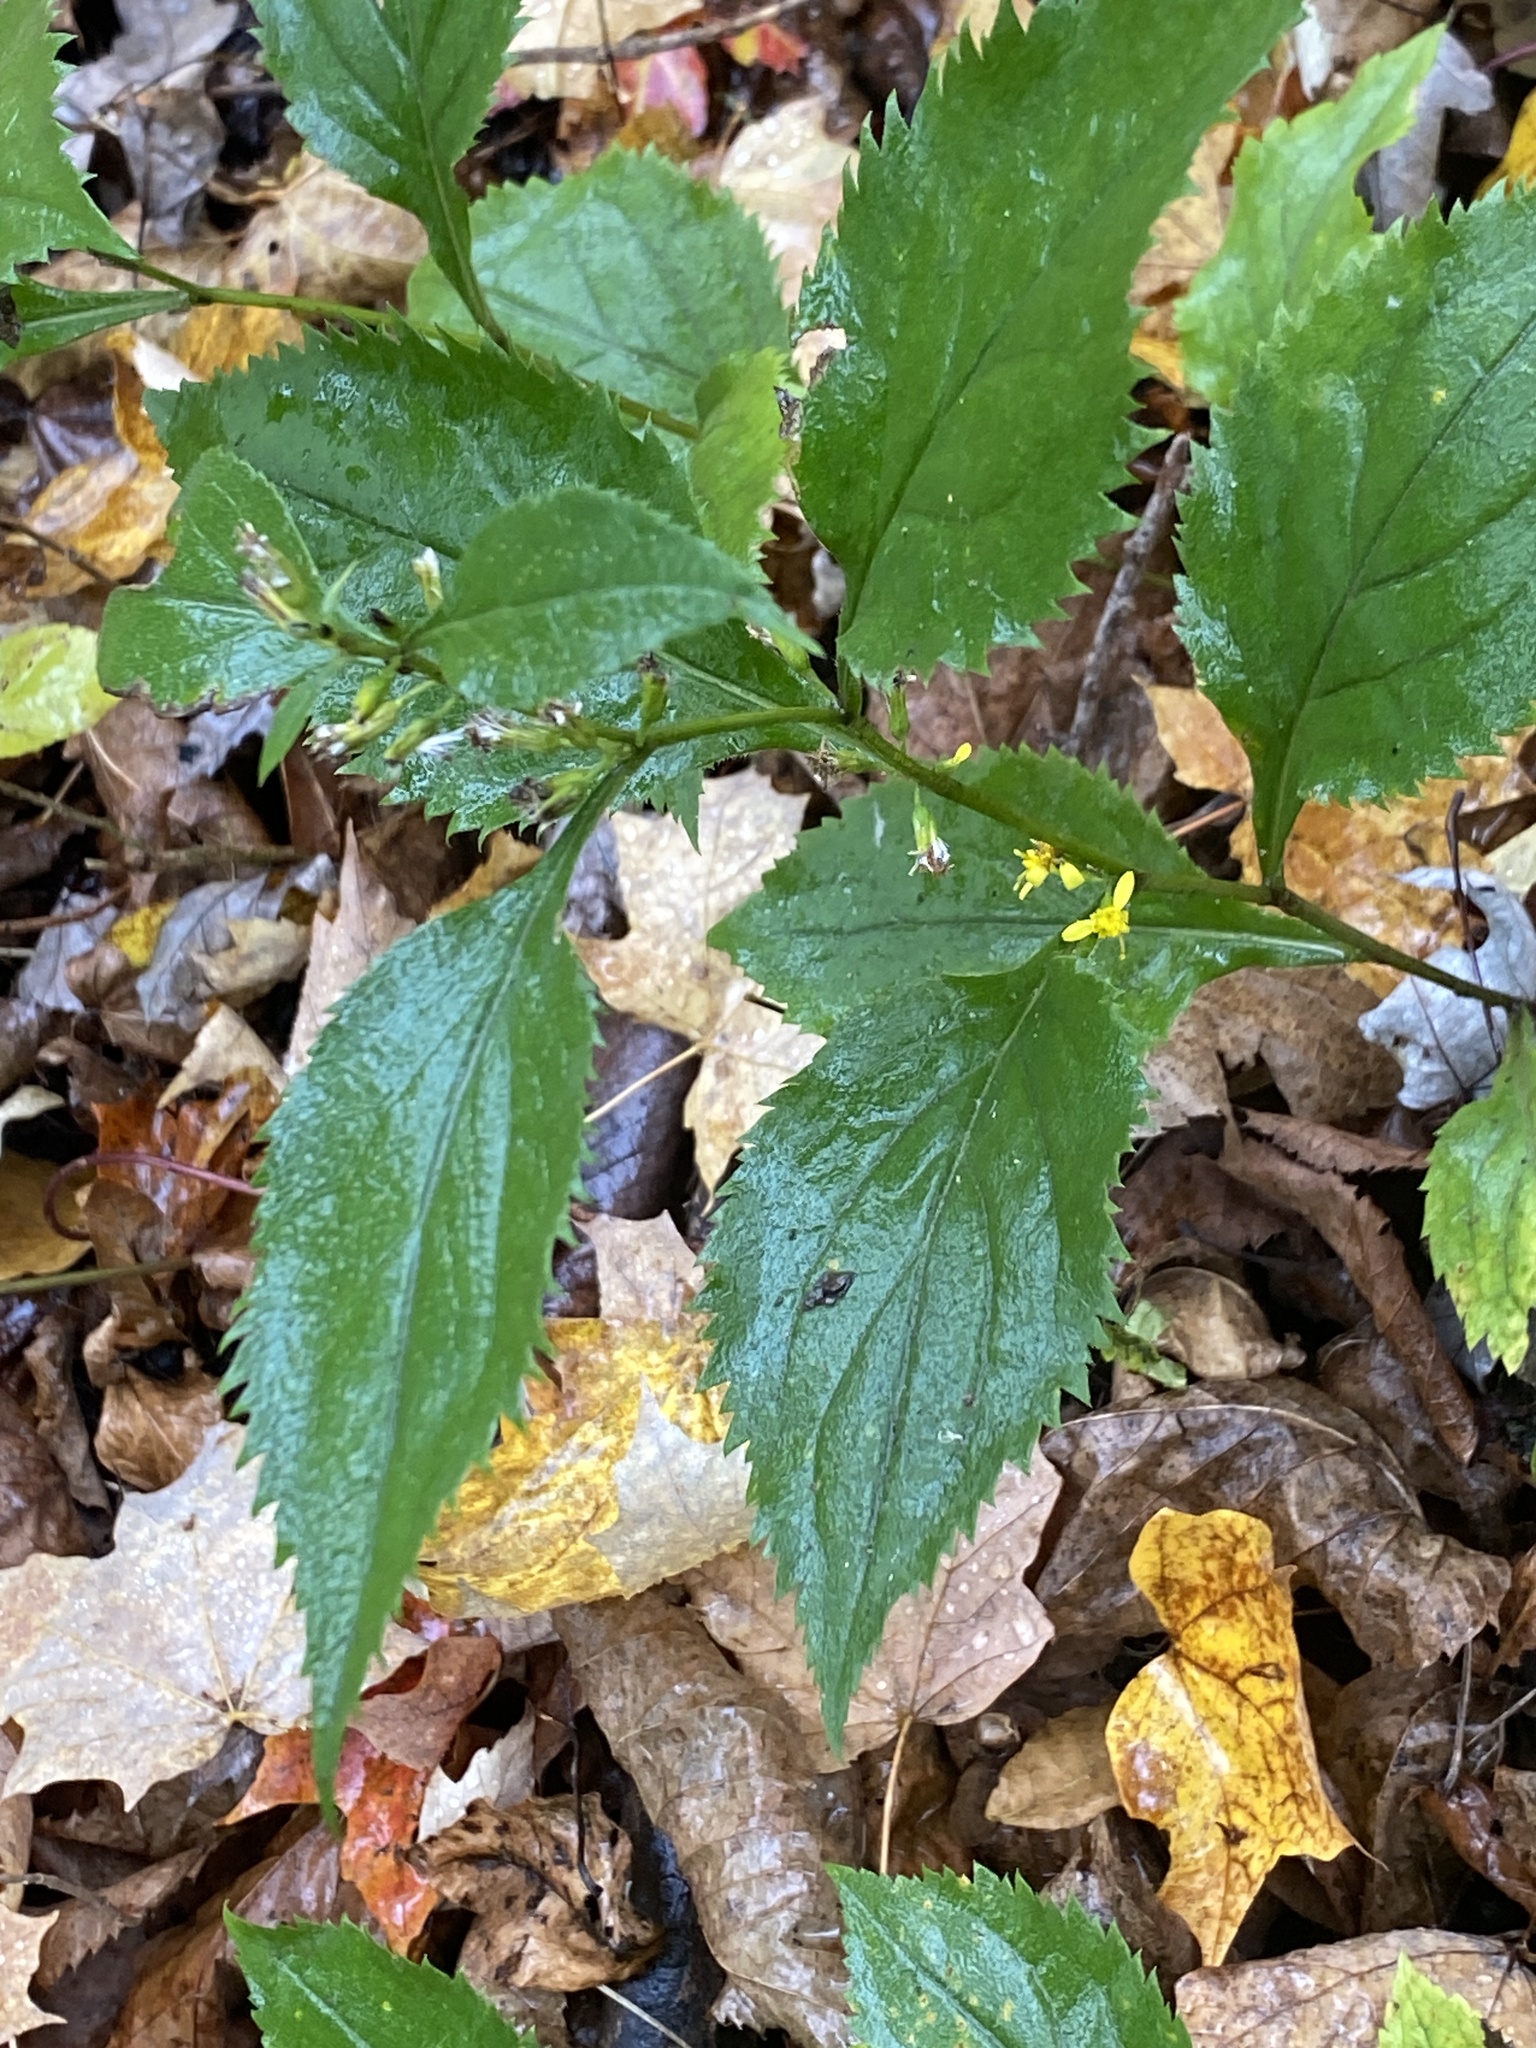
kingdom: Plantae
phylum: Tracheophyta
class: Magnoliopsida
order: Asterales
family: Asteraceae
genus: Solidago
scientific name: Solidago flexicaulis
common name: Zig-zag goldenrod
